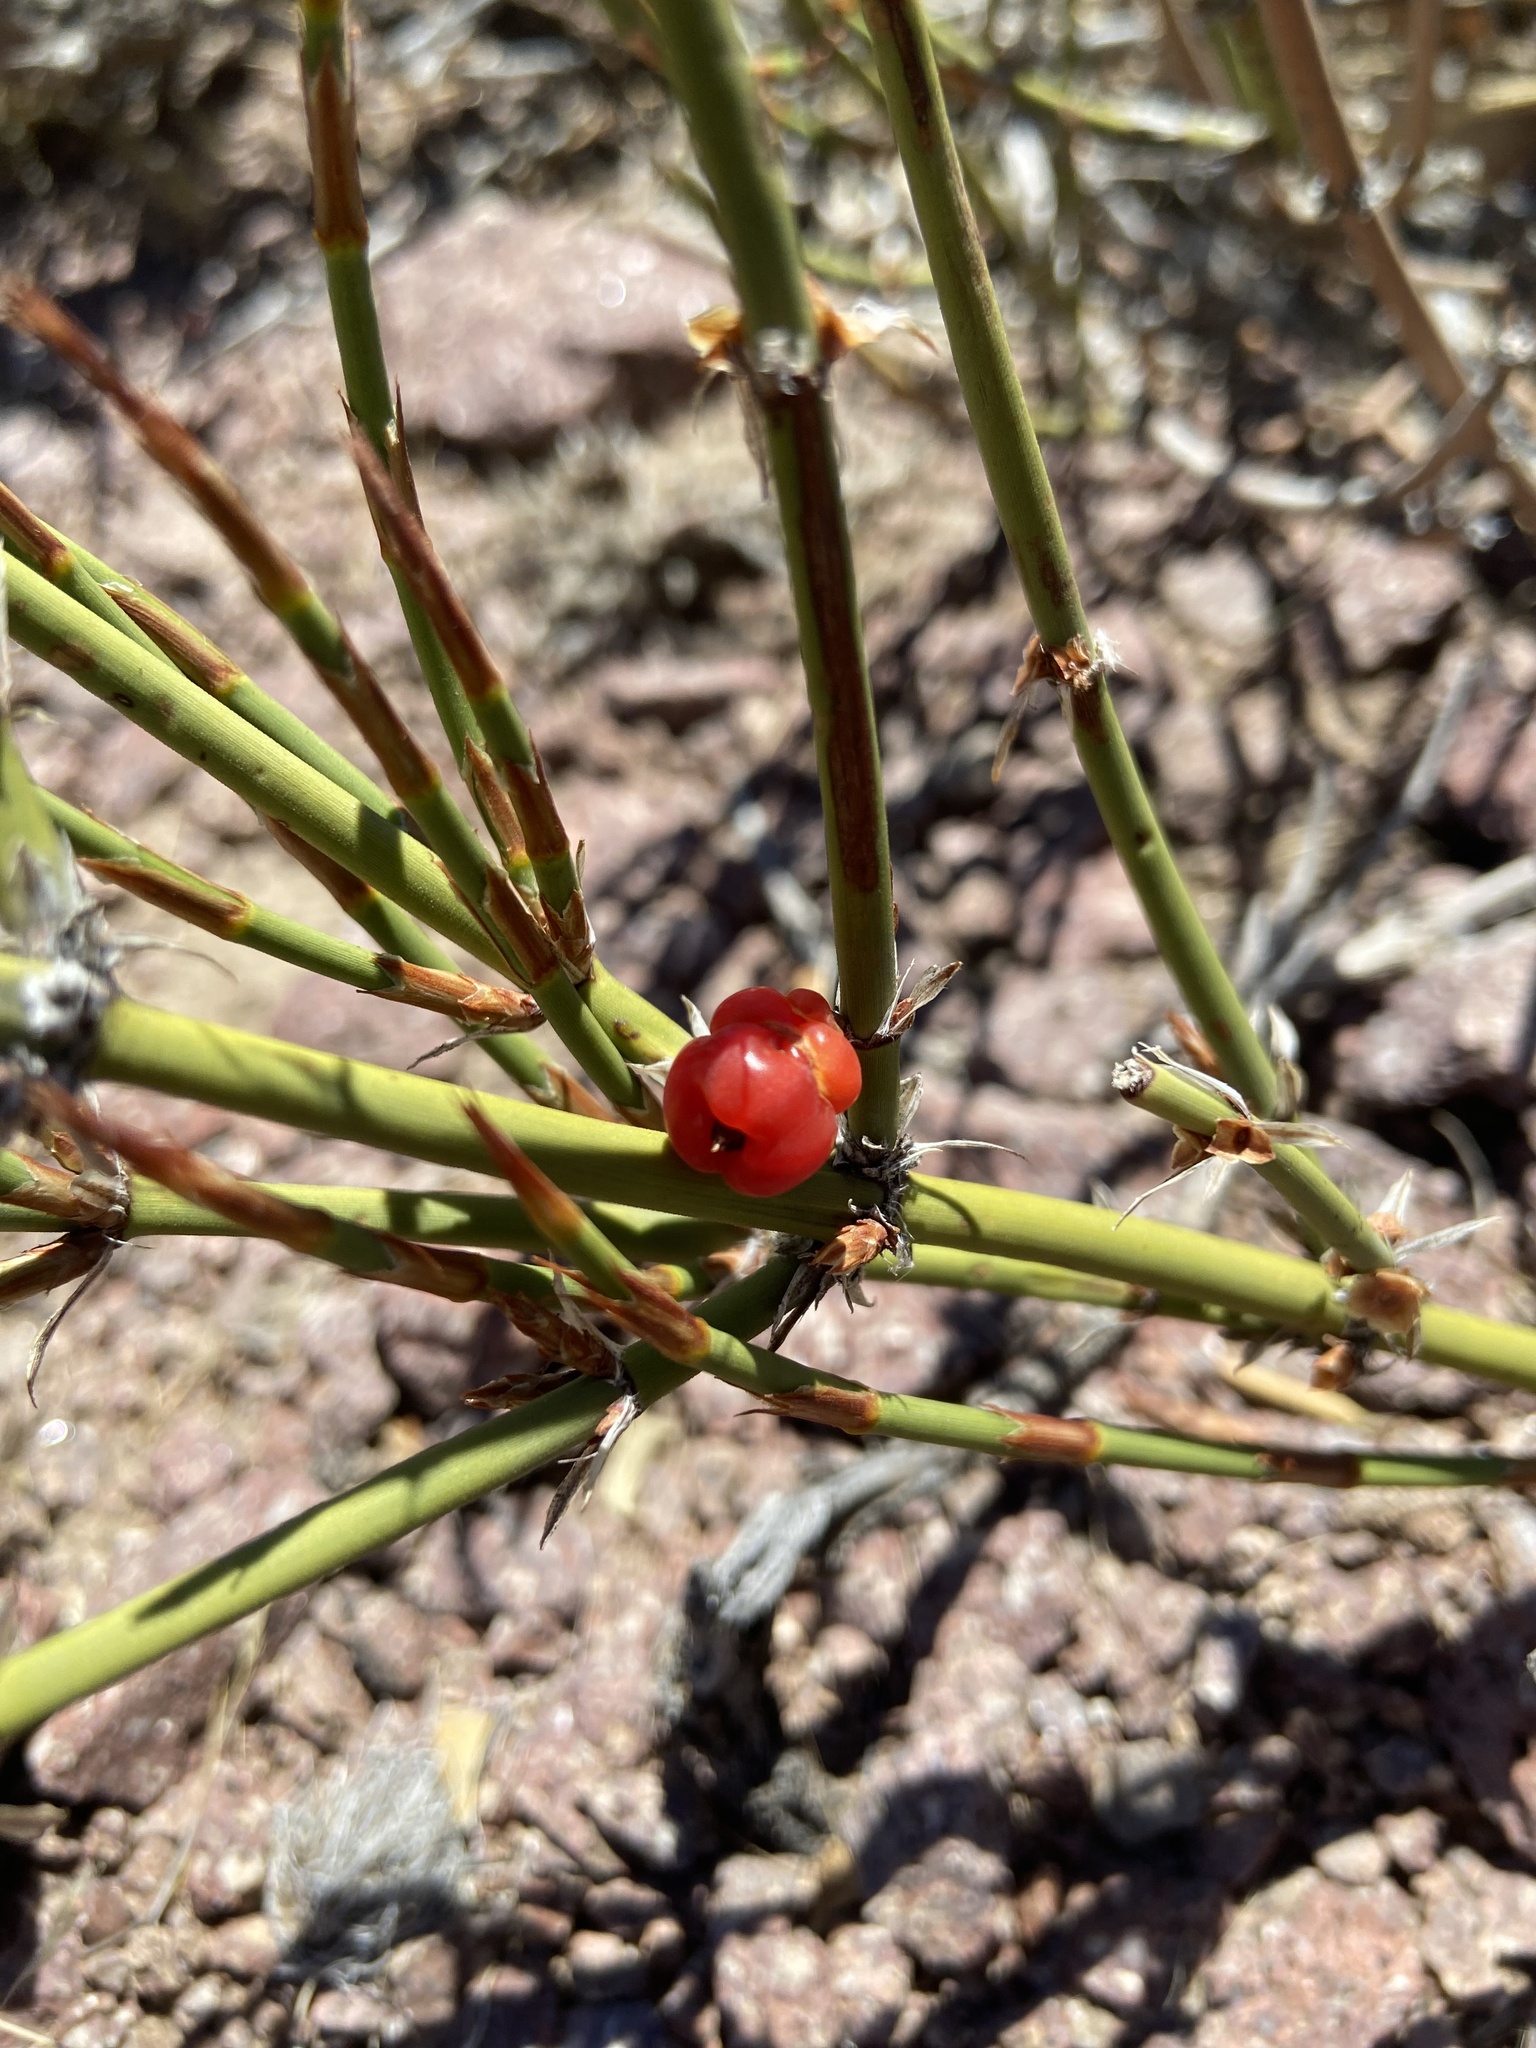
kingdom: Plantae
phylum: Tracheophyta
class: Gnetopsida
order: Ephedrales
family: Ephedraceae
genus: Ephedra
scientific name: Ephedra ochreata
